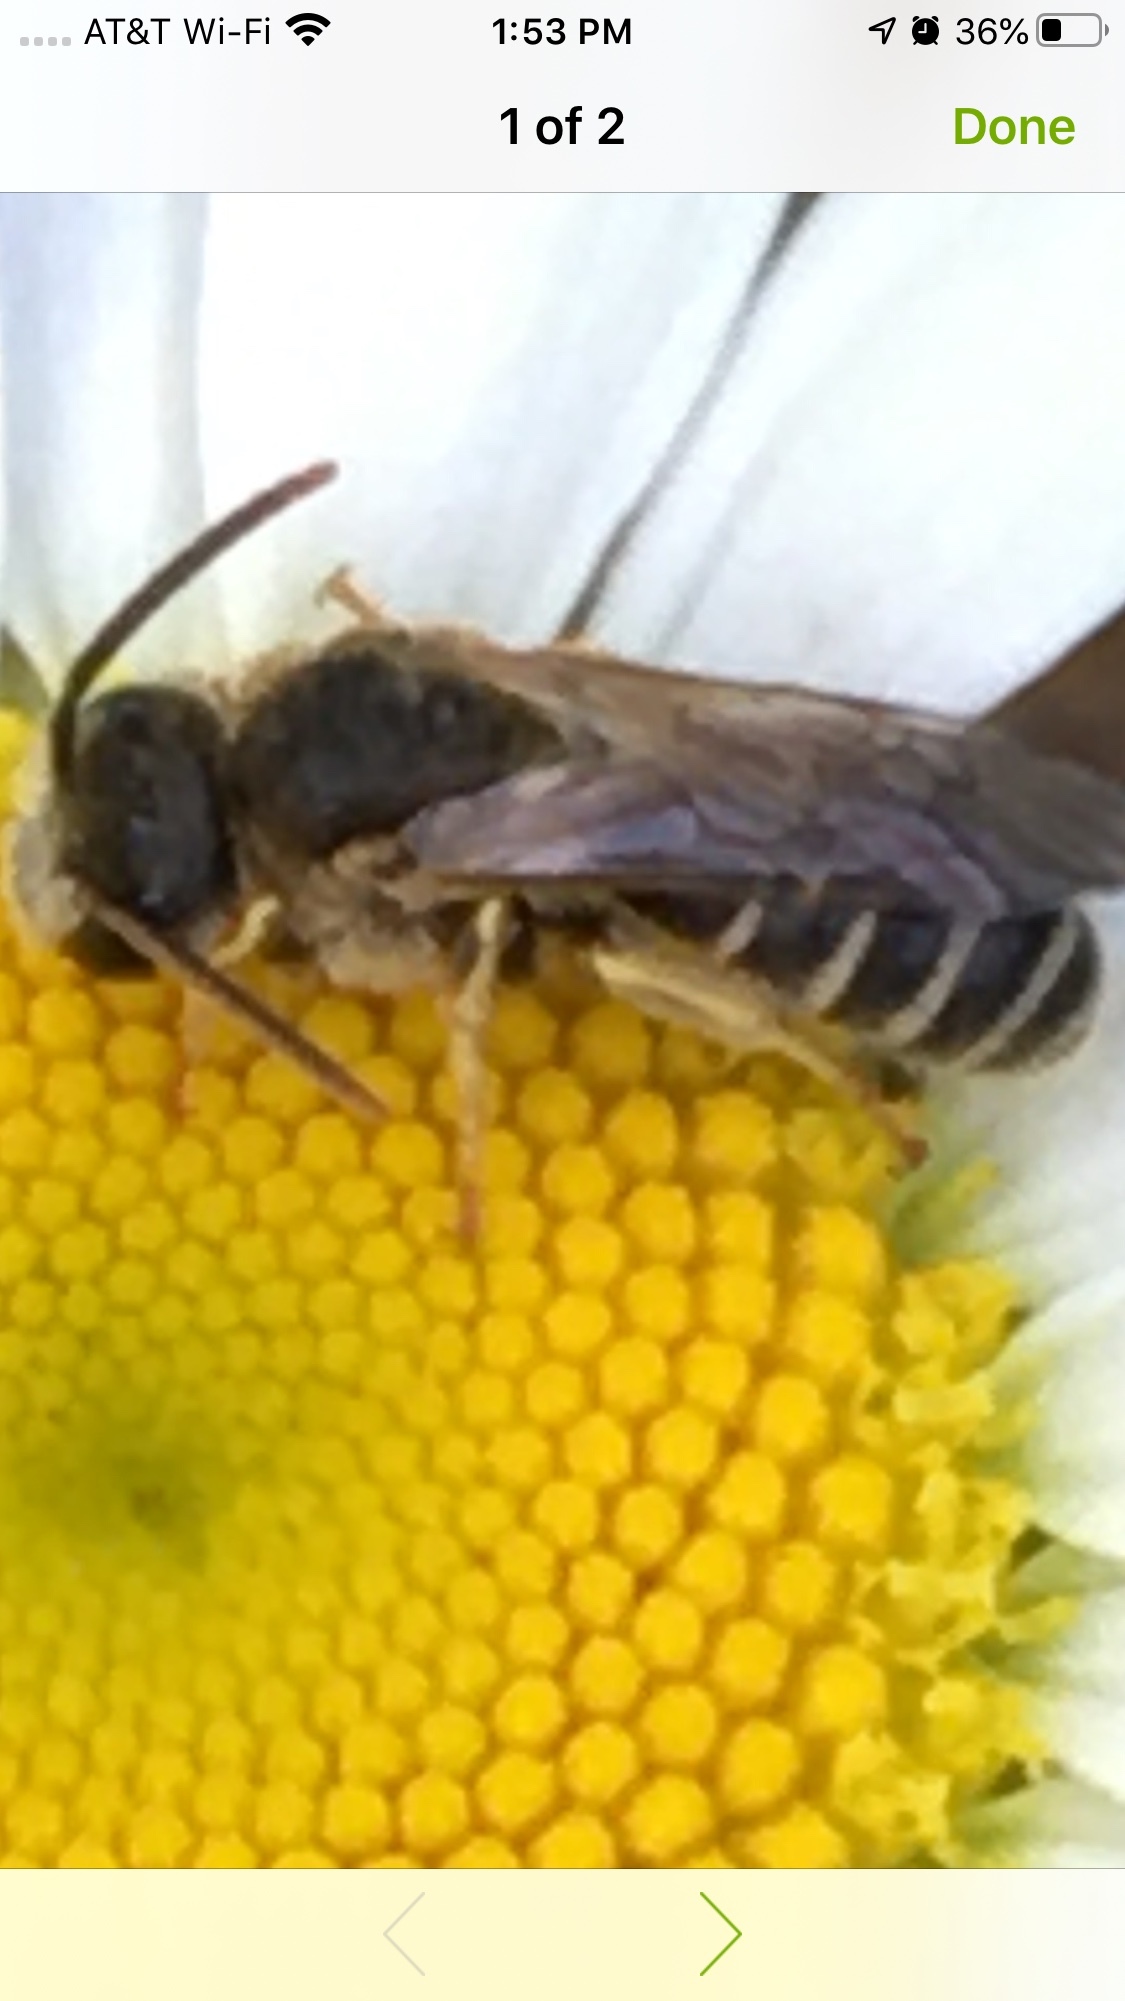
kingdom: Animalia
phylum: Arthropoda
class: Insecta
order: Hymenoptera
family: Halictidae
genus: Halictus
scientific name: Halictus ligatus
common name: Ligated furrow bee
